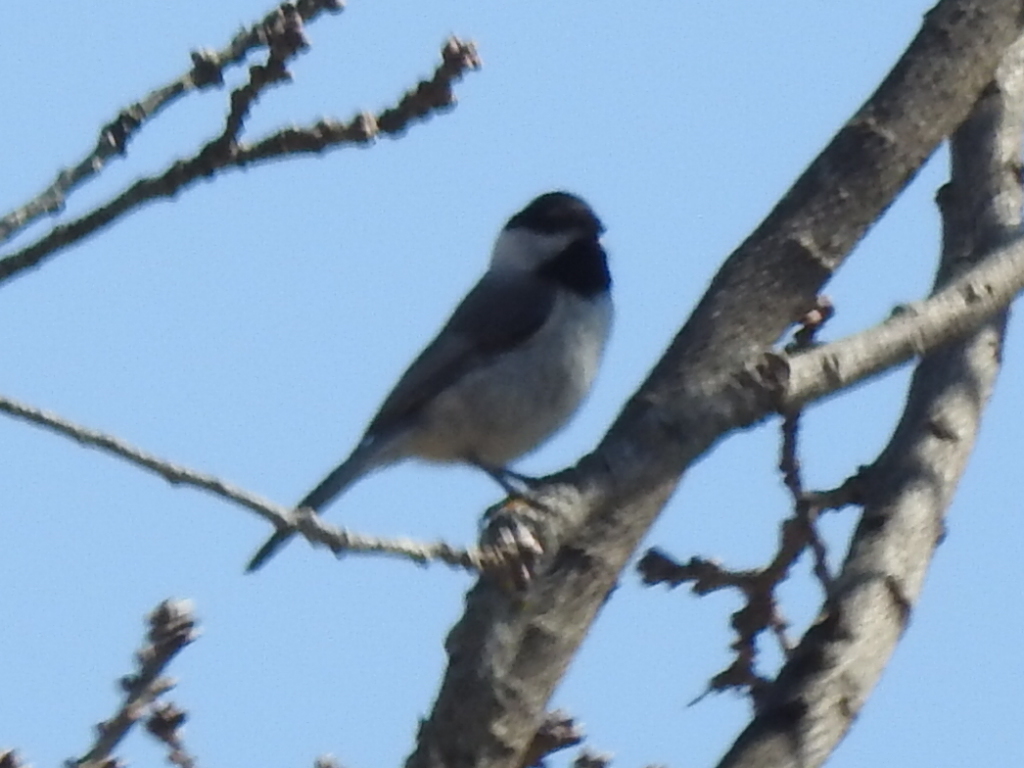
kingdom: Animalia
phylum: Chordata
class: Aves
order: Passeriformes
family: Paridae
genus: Poecile
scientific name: Poecile carolinensis
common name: Carolina chickadee
